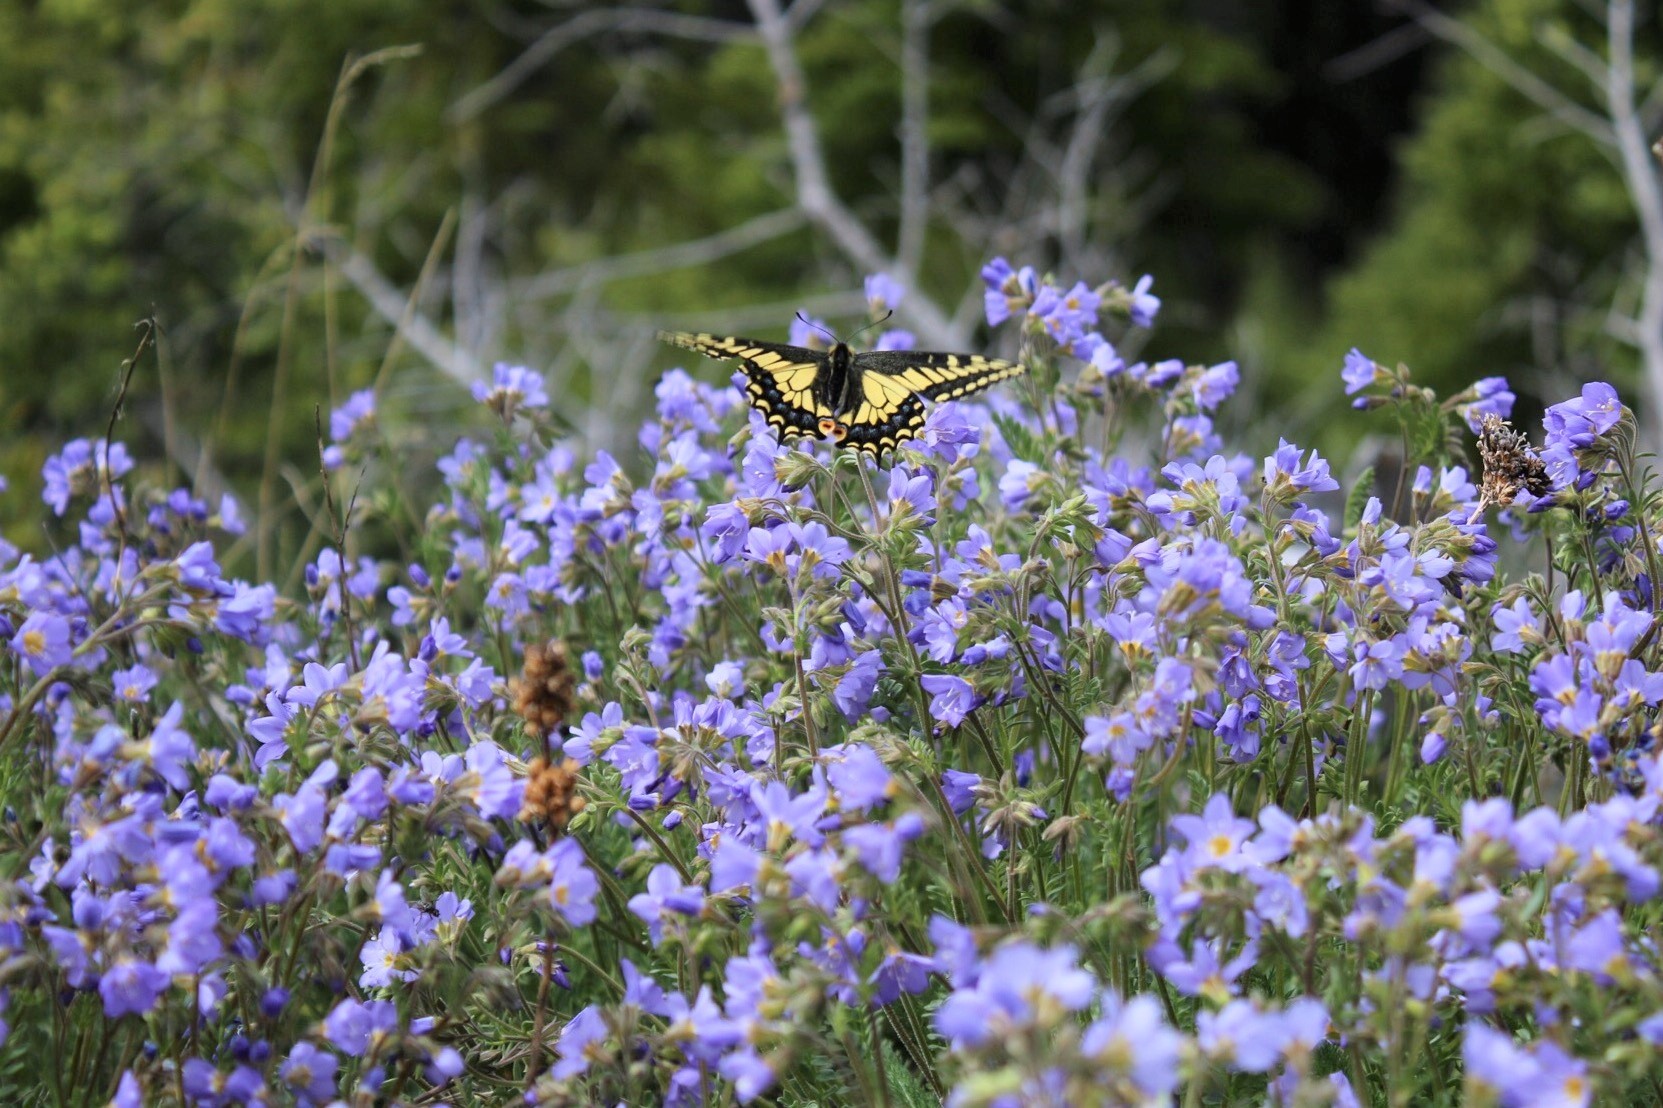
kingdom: Animalia
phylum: Arthropoda
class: Insecta
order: Lepidoptera
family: Papilionidae
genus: Papilio
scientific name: Papilio zelicaon
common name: Anise swallowtail
